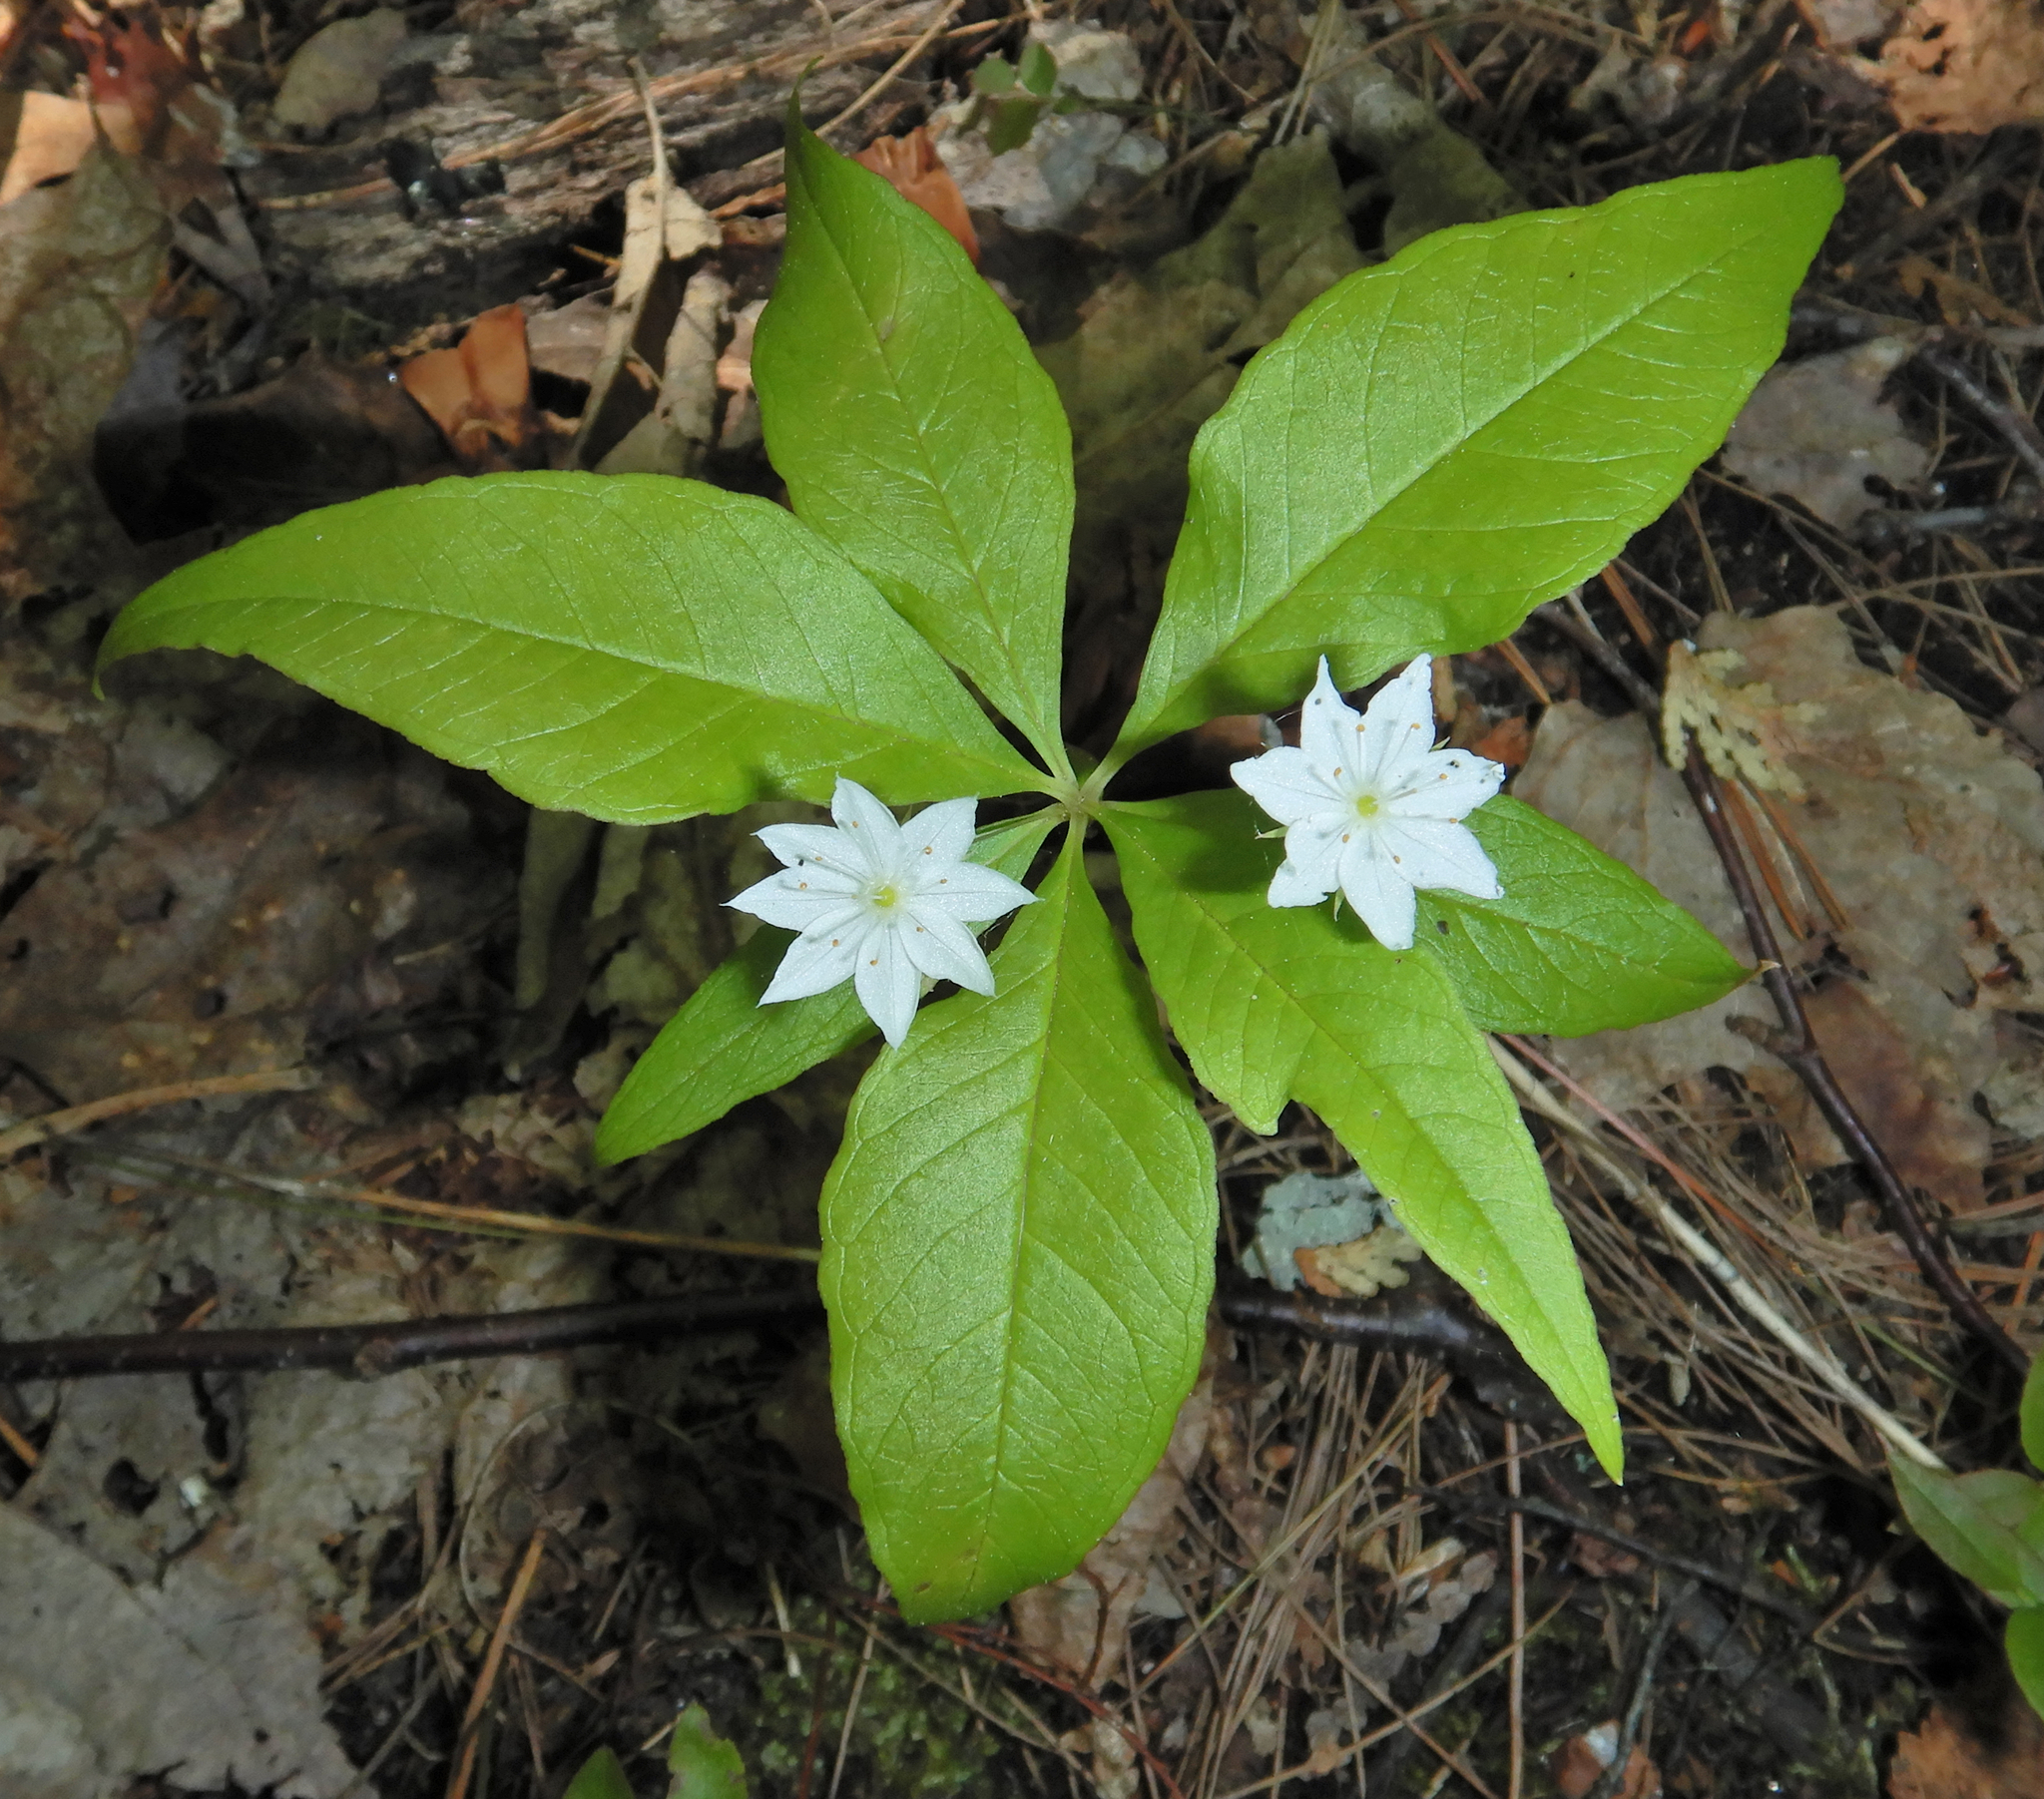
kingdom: Plantae
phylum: Tracheophyta
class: Magnoliopsida
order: Ericales
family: Primulaceae
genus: Lysimachia
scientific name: Lysimachia borealis
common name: American starflower
